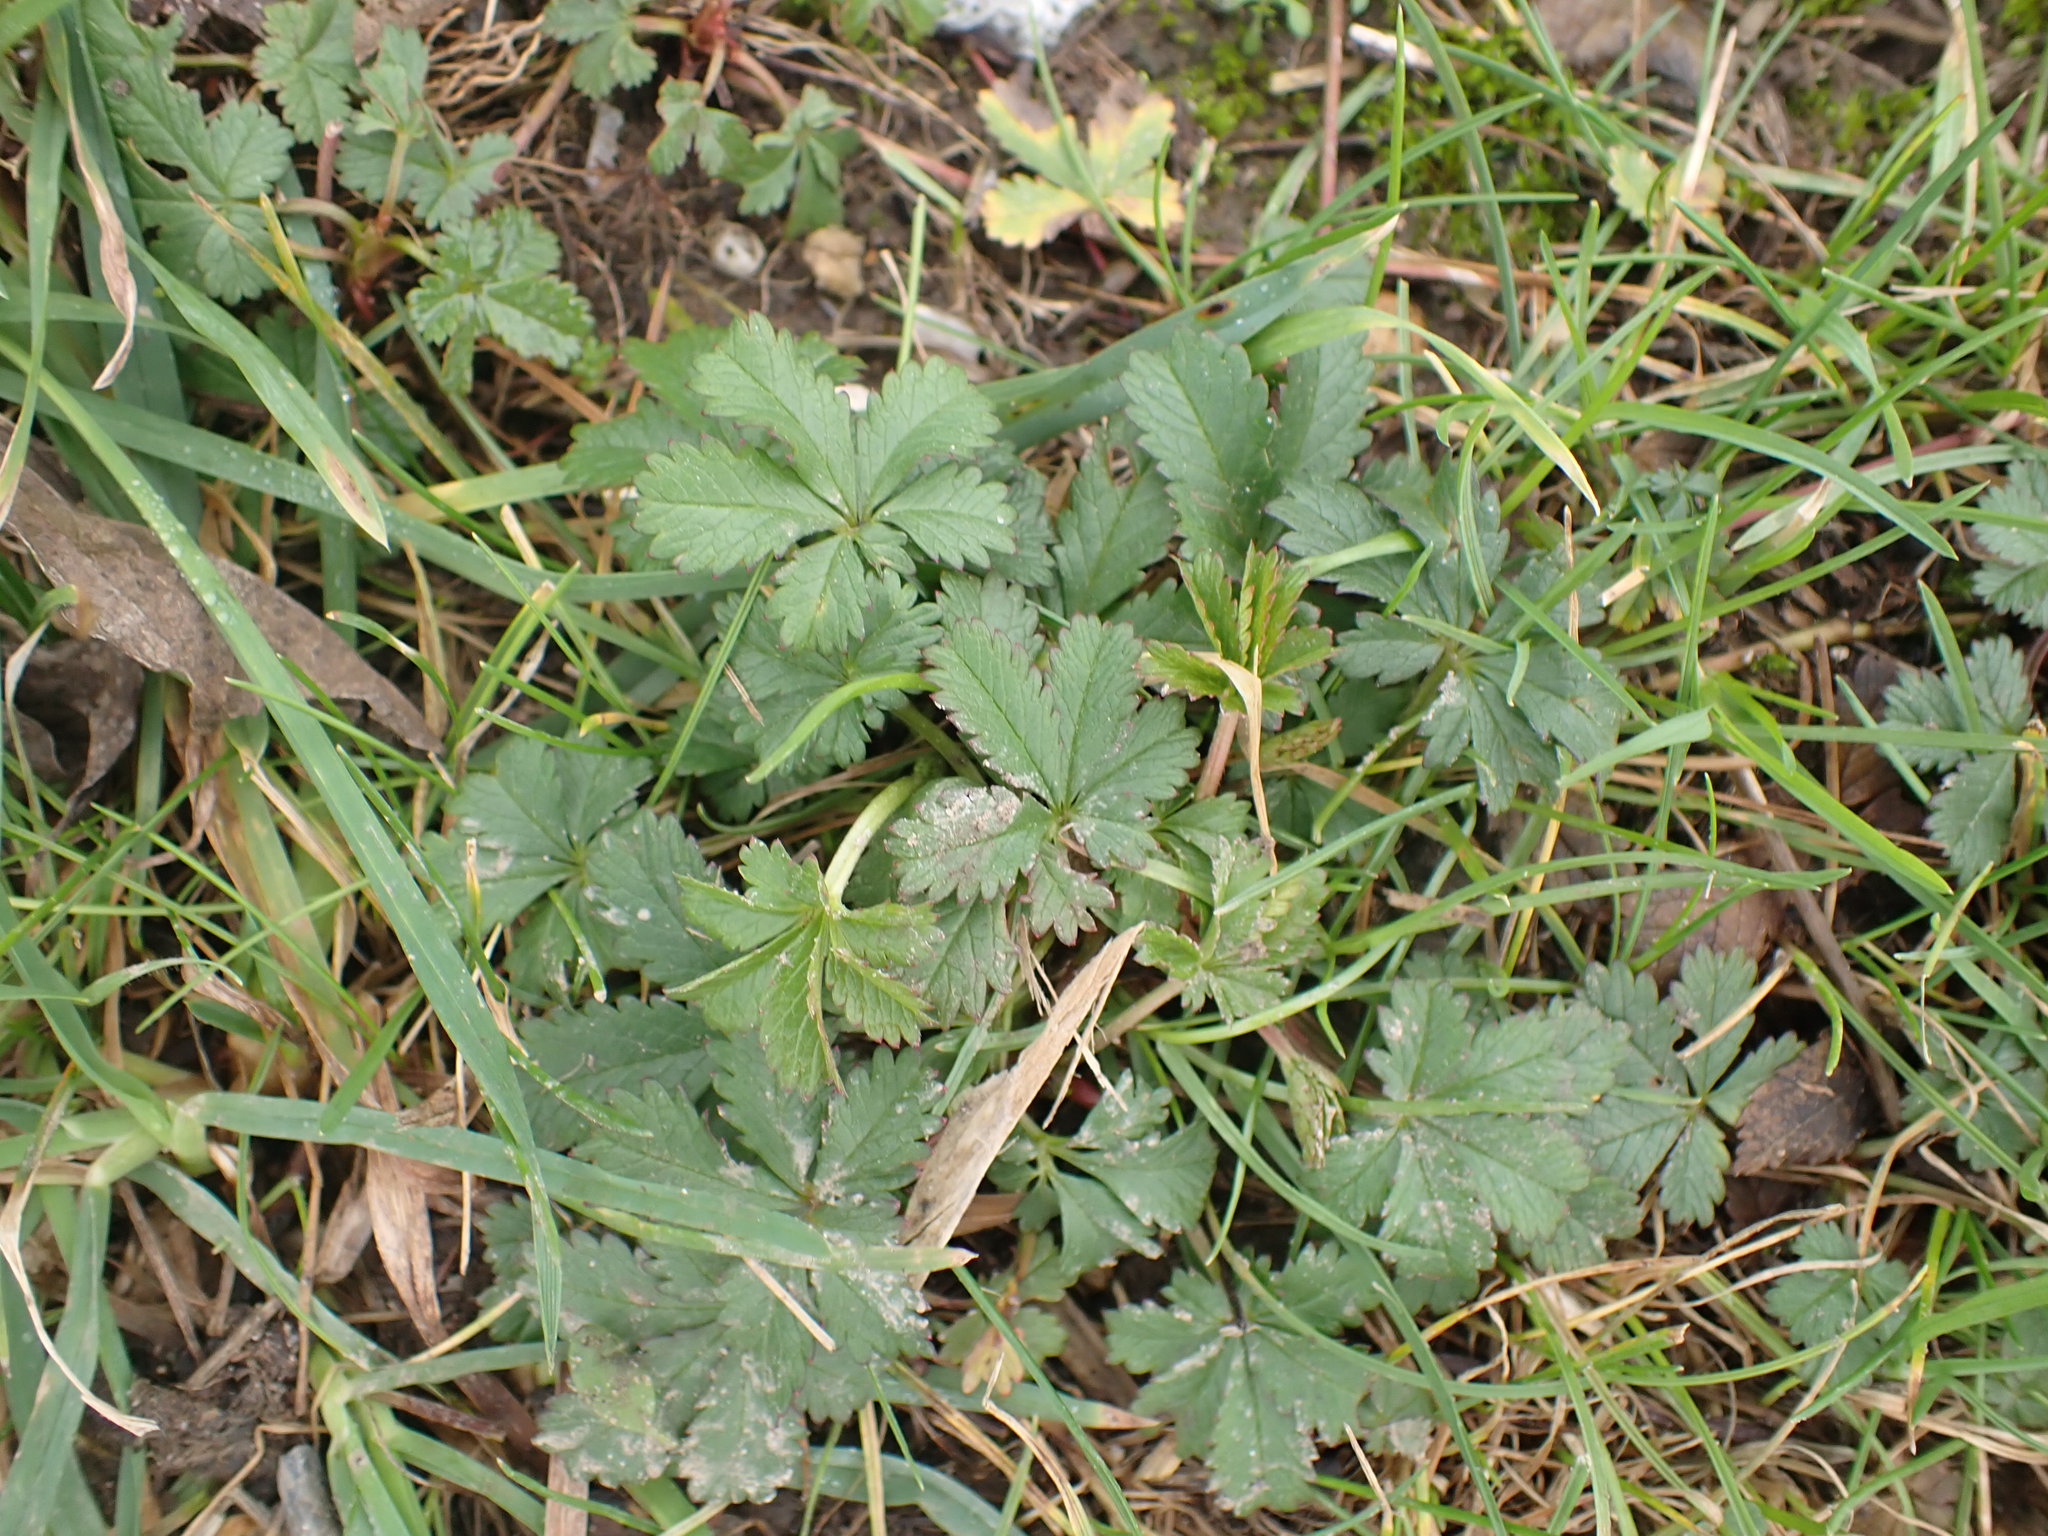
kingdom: Plantae
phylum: Tracheophyta
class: Magnoliopsida
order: Rosales
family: Rosaceae
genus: Potentilla
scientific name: Potentilla reptans
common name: Creeping cinquefoil
